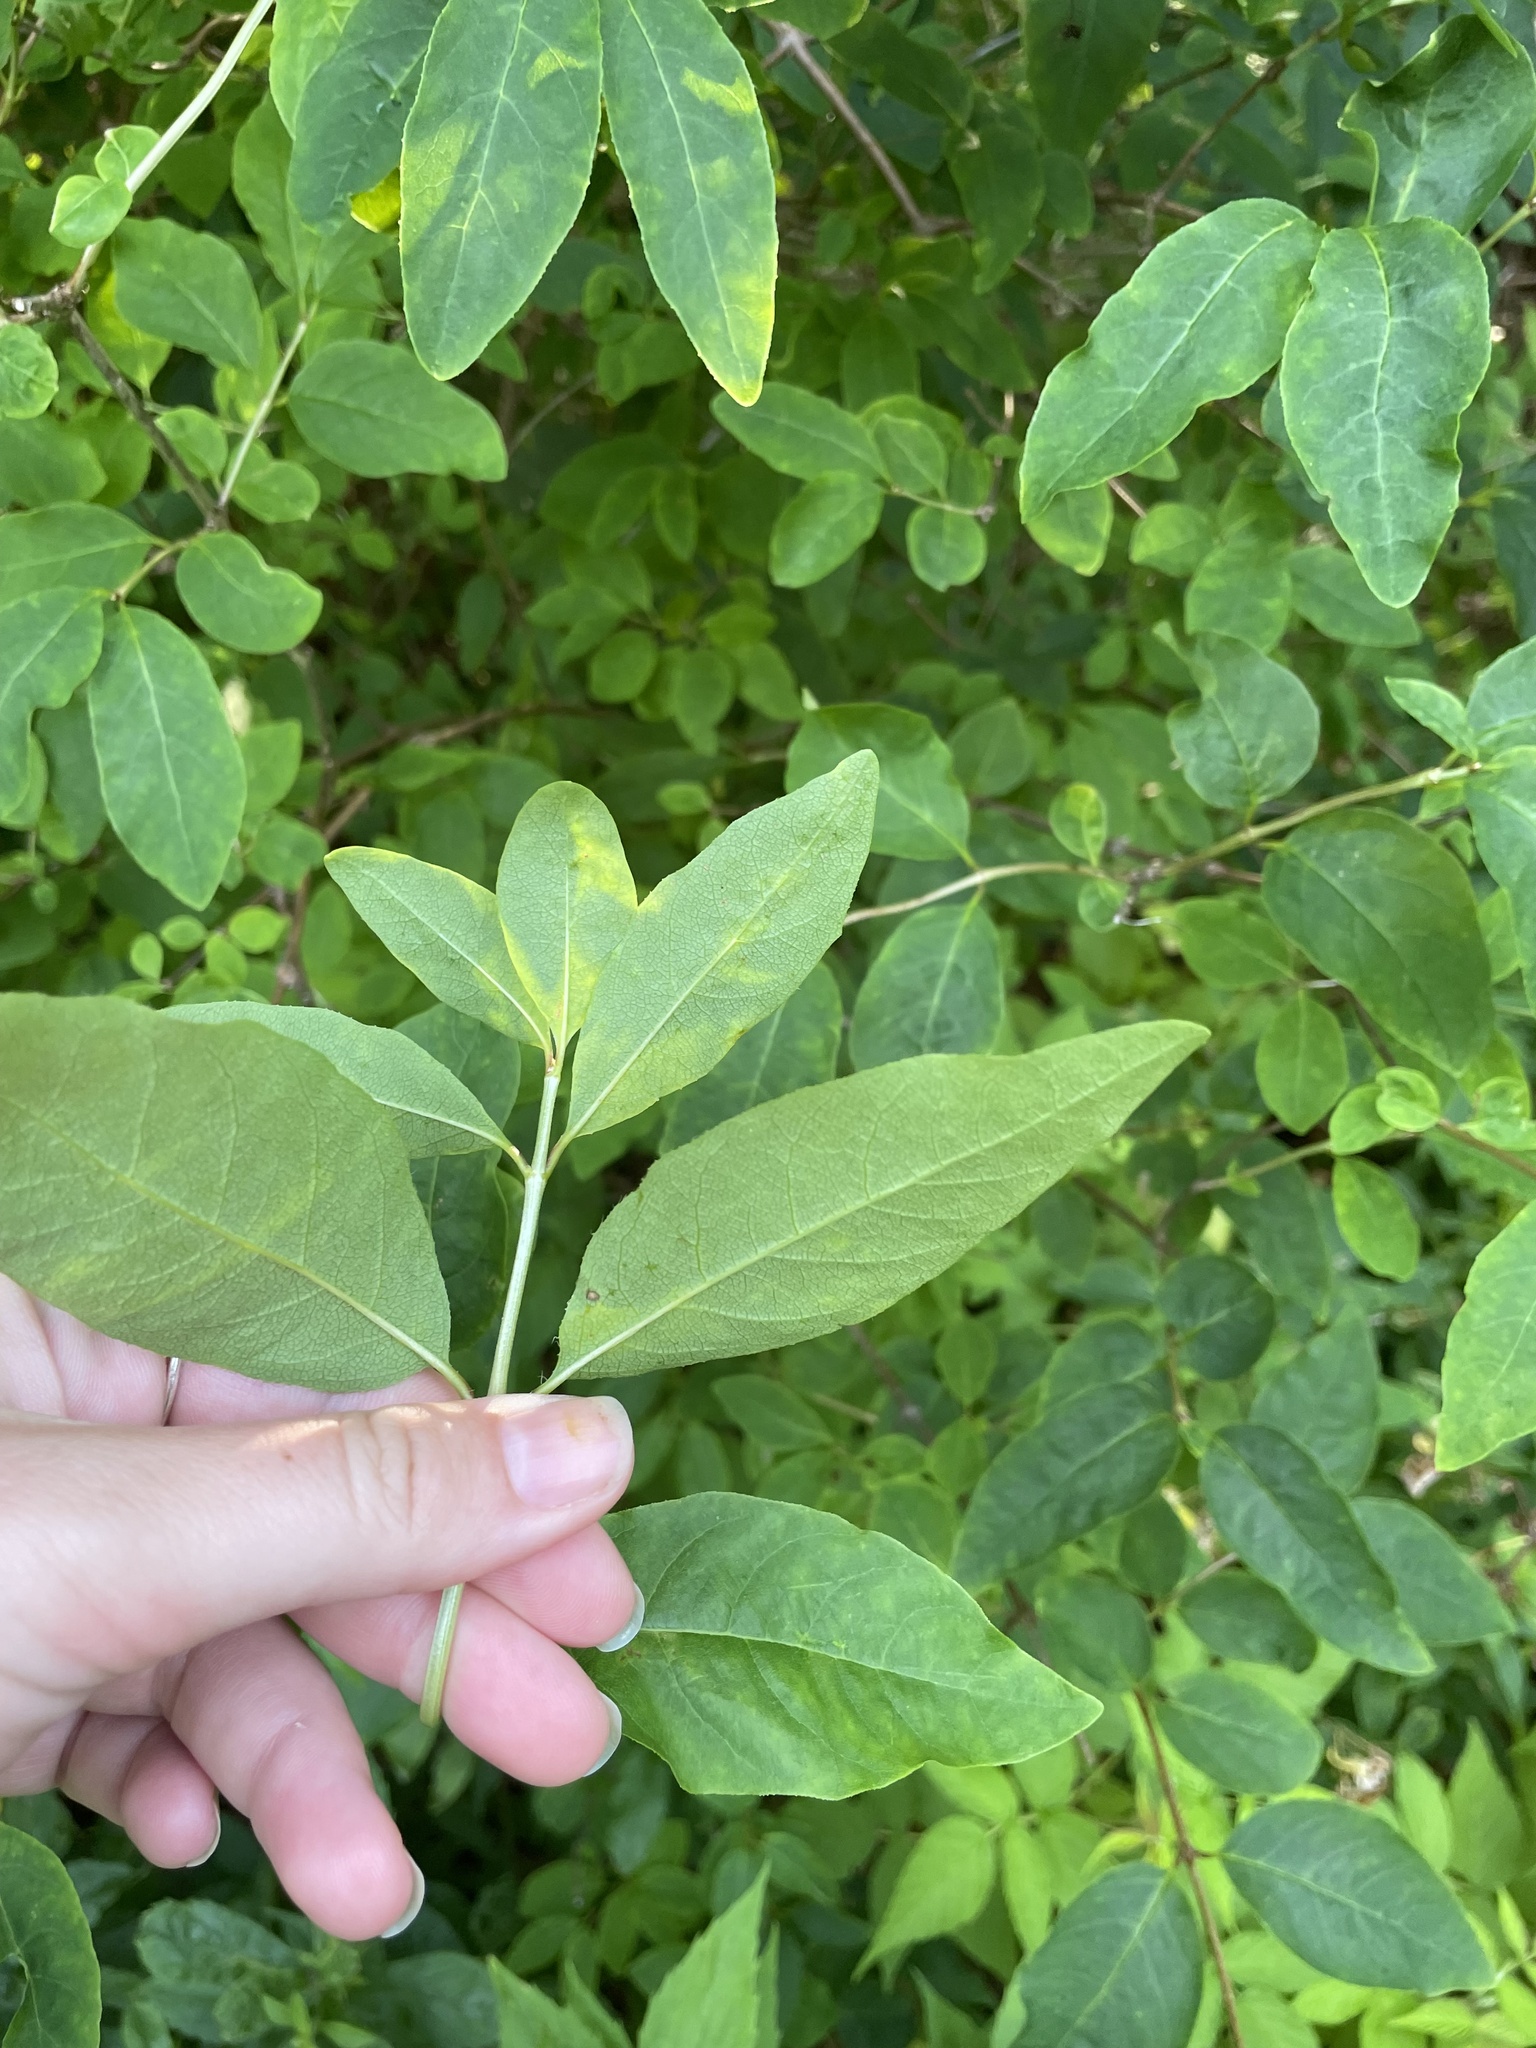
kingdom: Plantae
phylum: Tracheophyta
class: Magnoliopsida
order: Dipsacales
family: Caprifoliaceae
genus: Lonicera
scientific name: Lonicera canadensis
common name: American fly-honeysuckle
